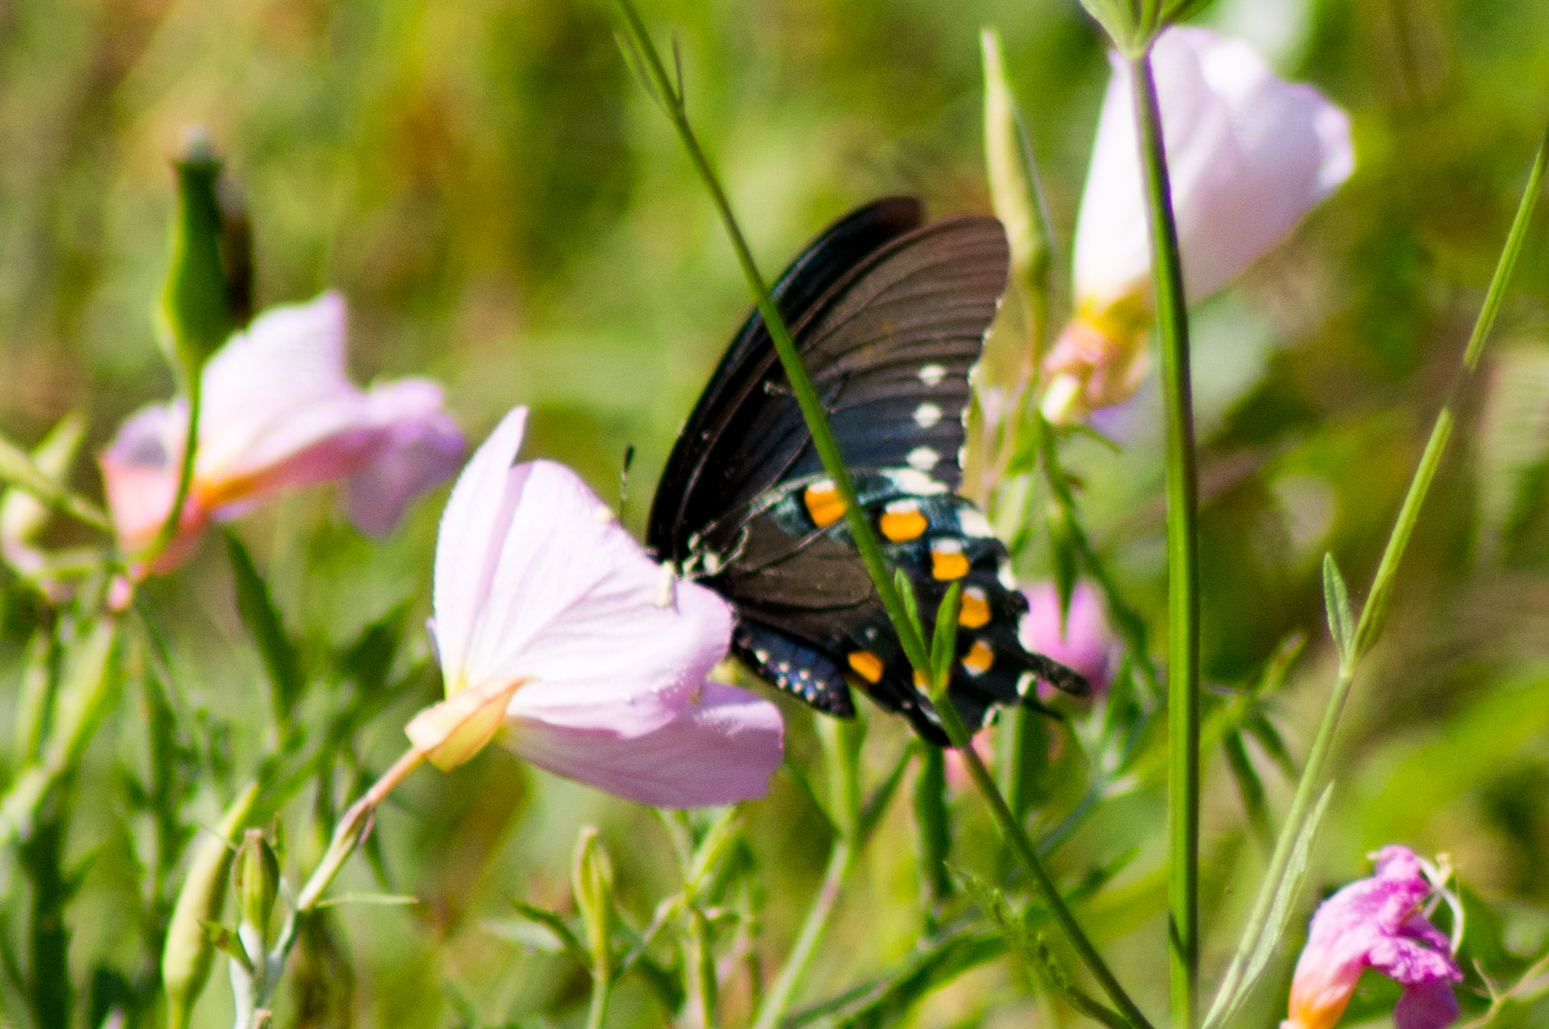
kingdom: Animalia
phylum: Arthropoda
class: Insecta
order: Lepidoptera
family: Papilionidae
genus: Battus
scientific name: Battus philenor
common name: Pipevine swallowtail
